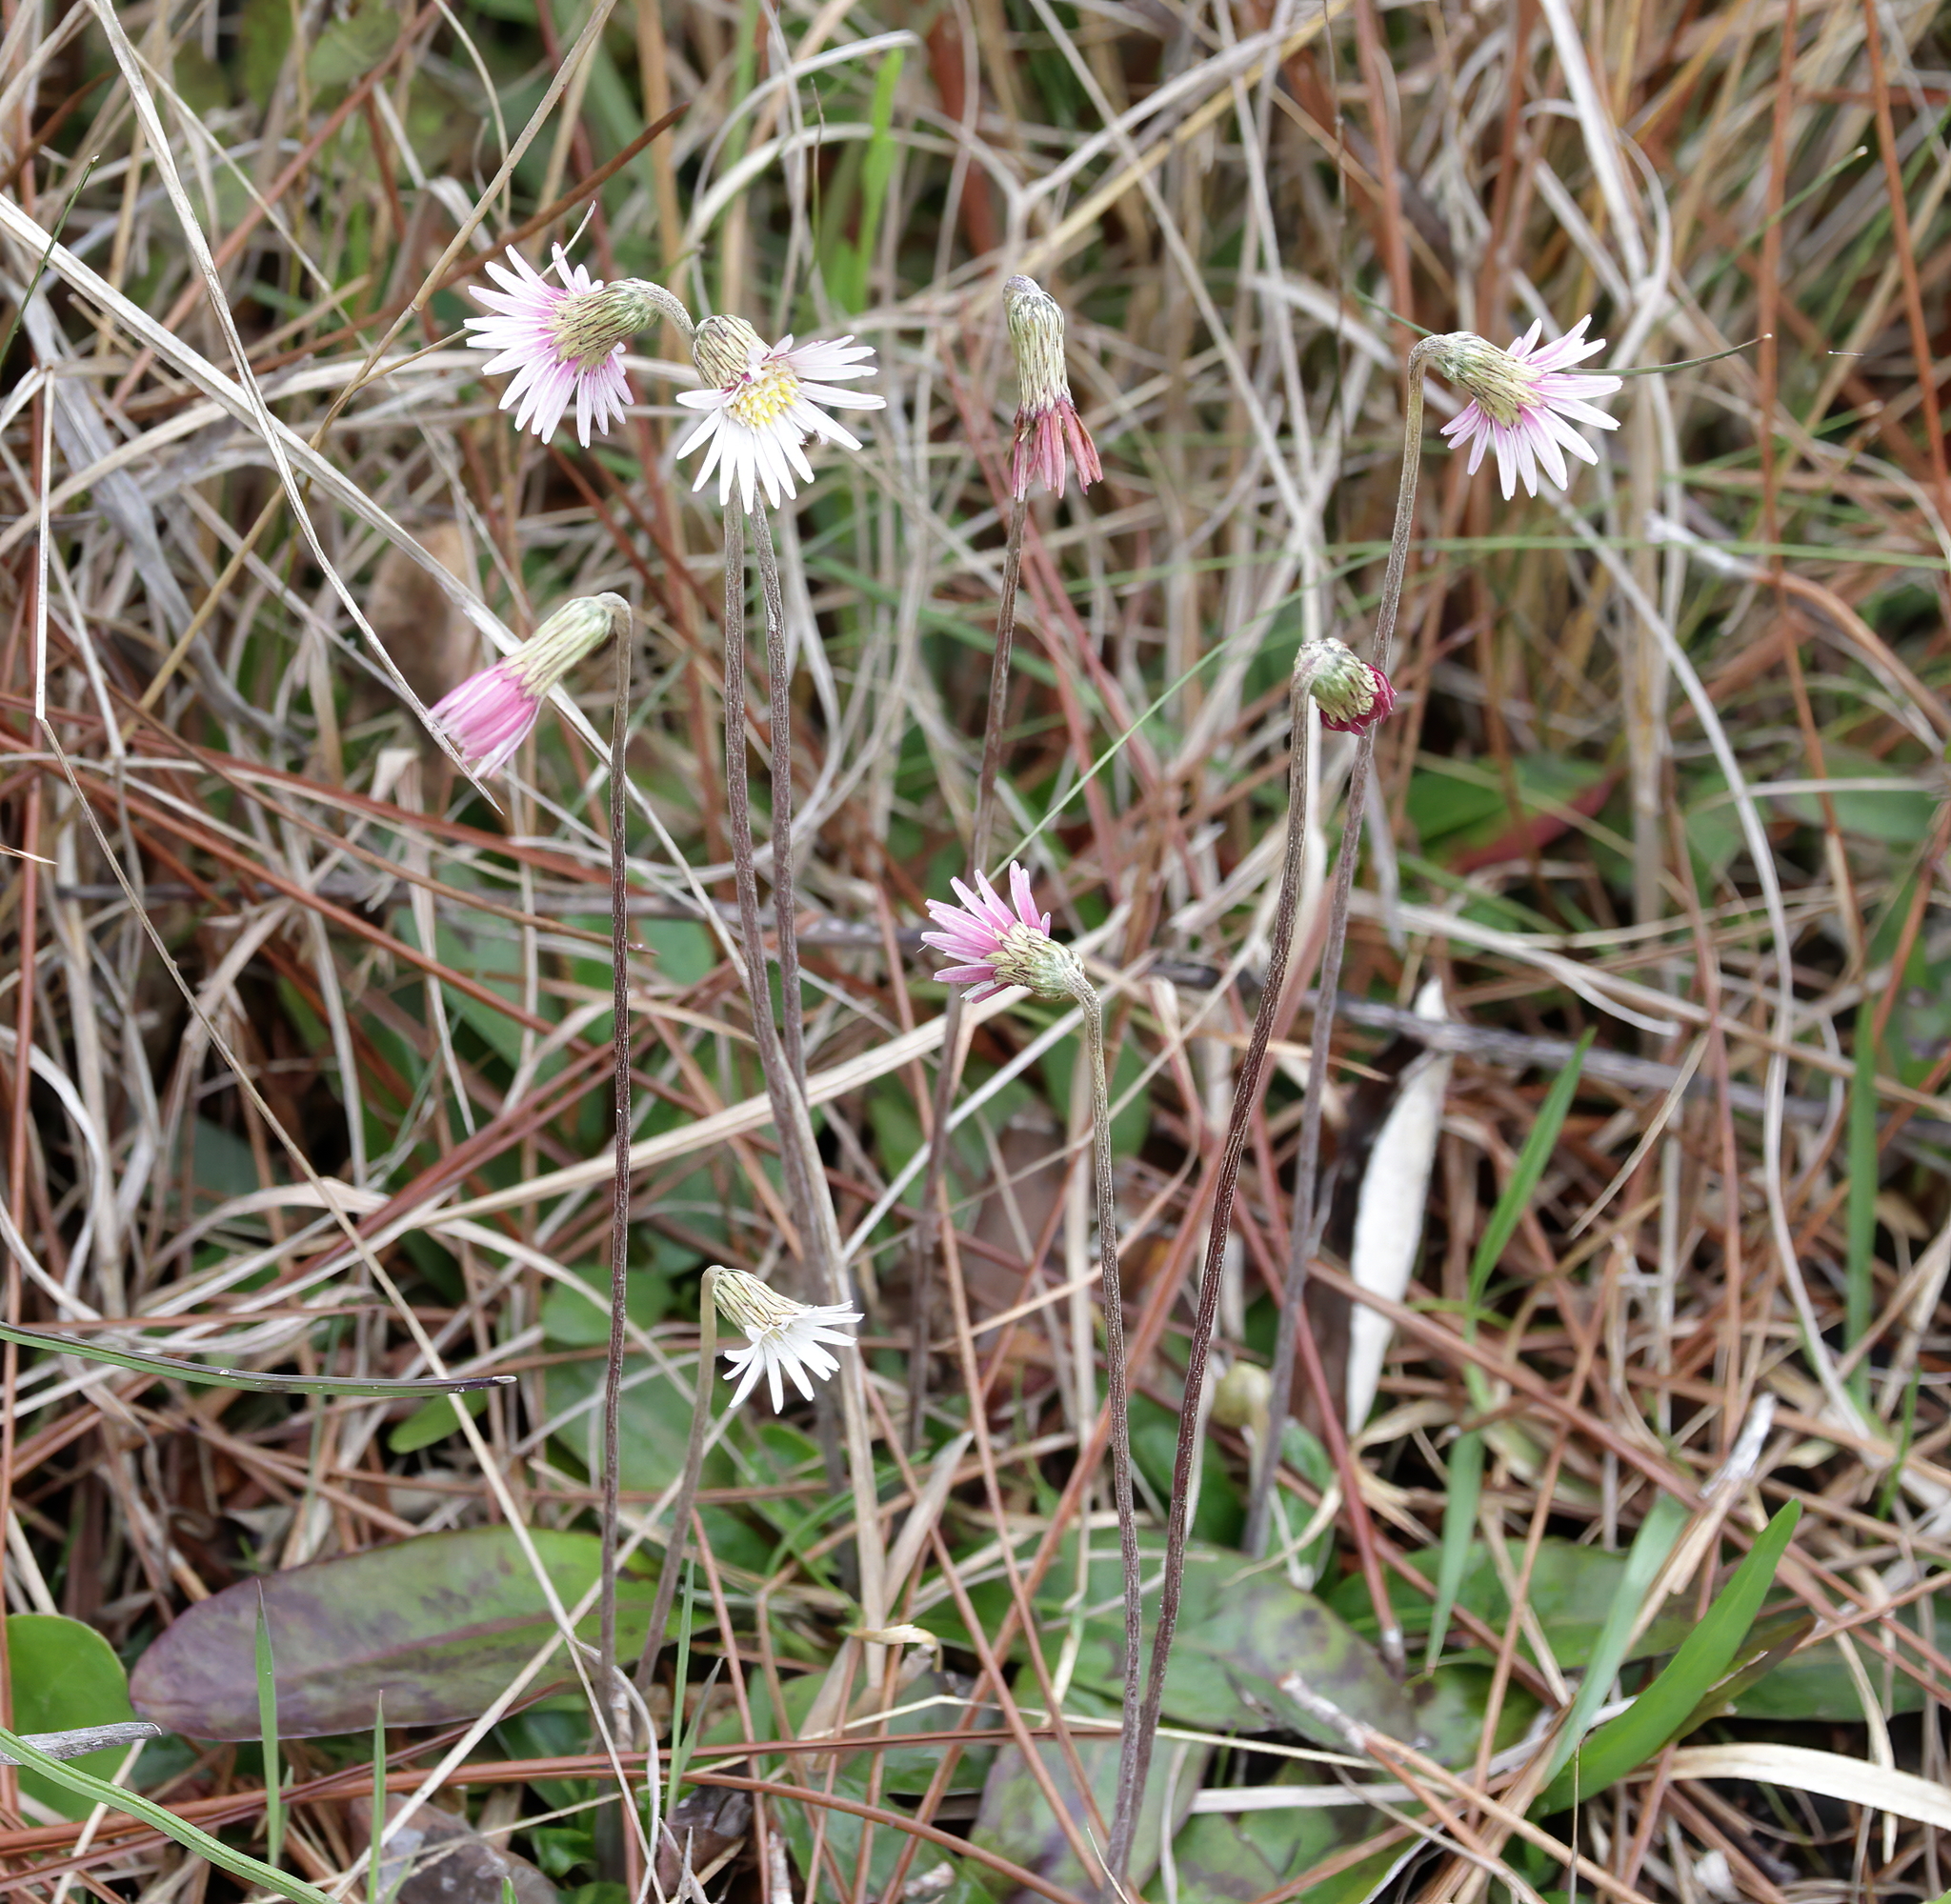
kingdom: Plantae
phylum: Tracheophyta
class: Magnoliopsida
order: Asterales
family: Asteraceae
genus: Chaptalia
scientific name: Chaptalia tomentosa
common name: Woolly sunbonnet
